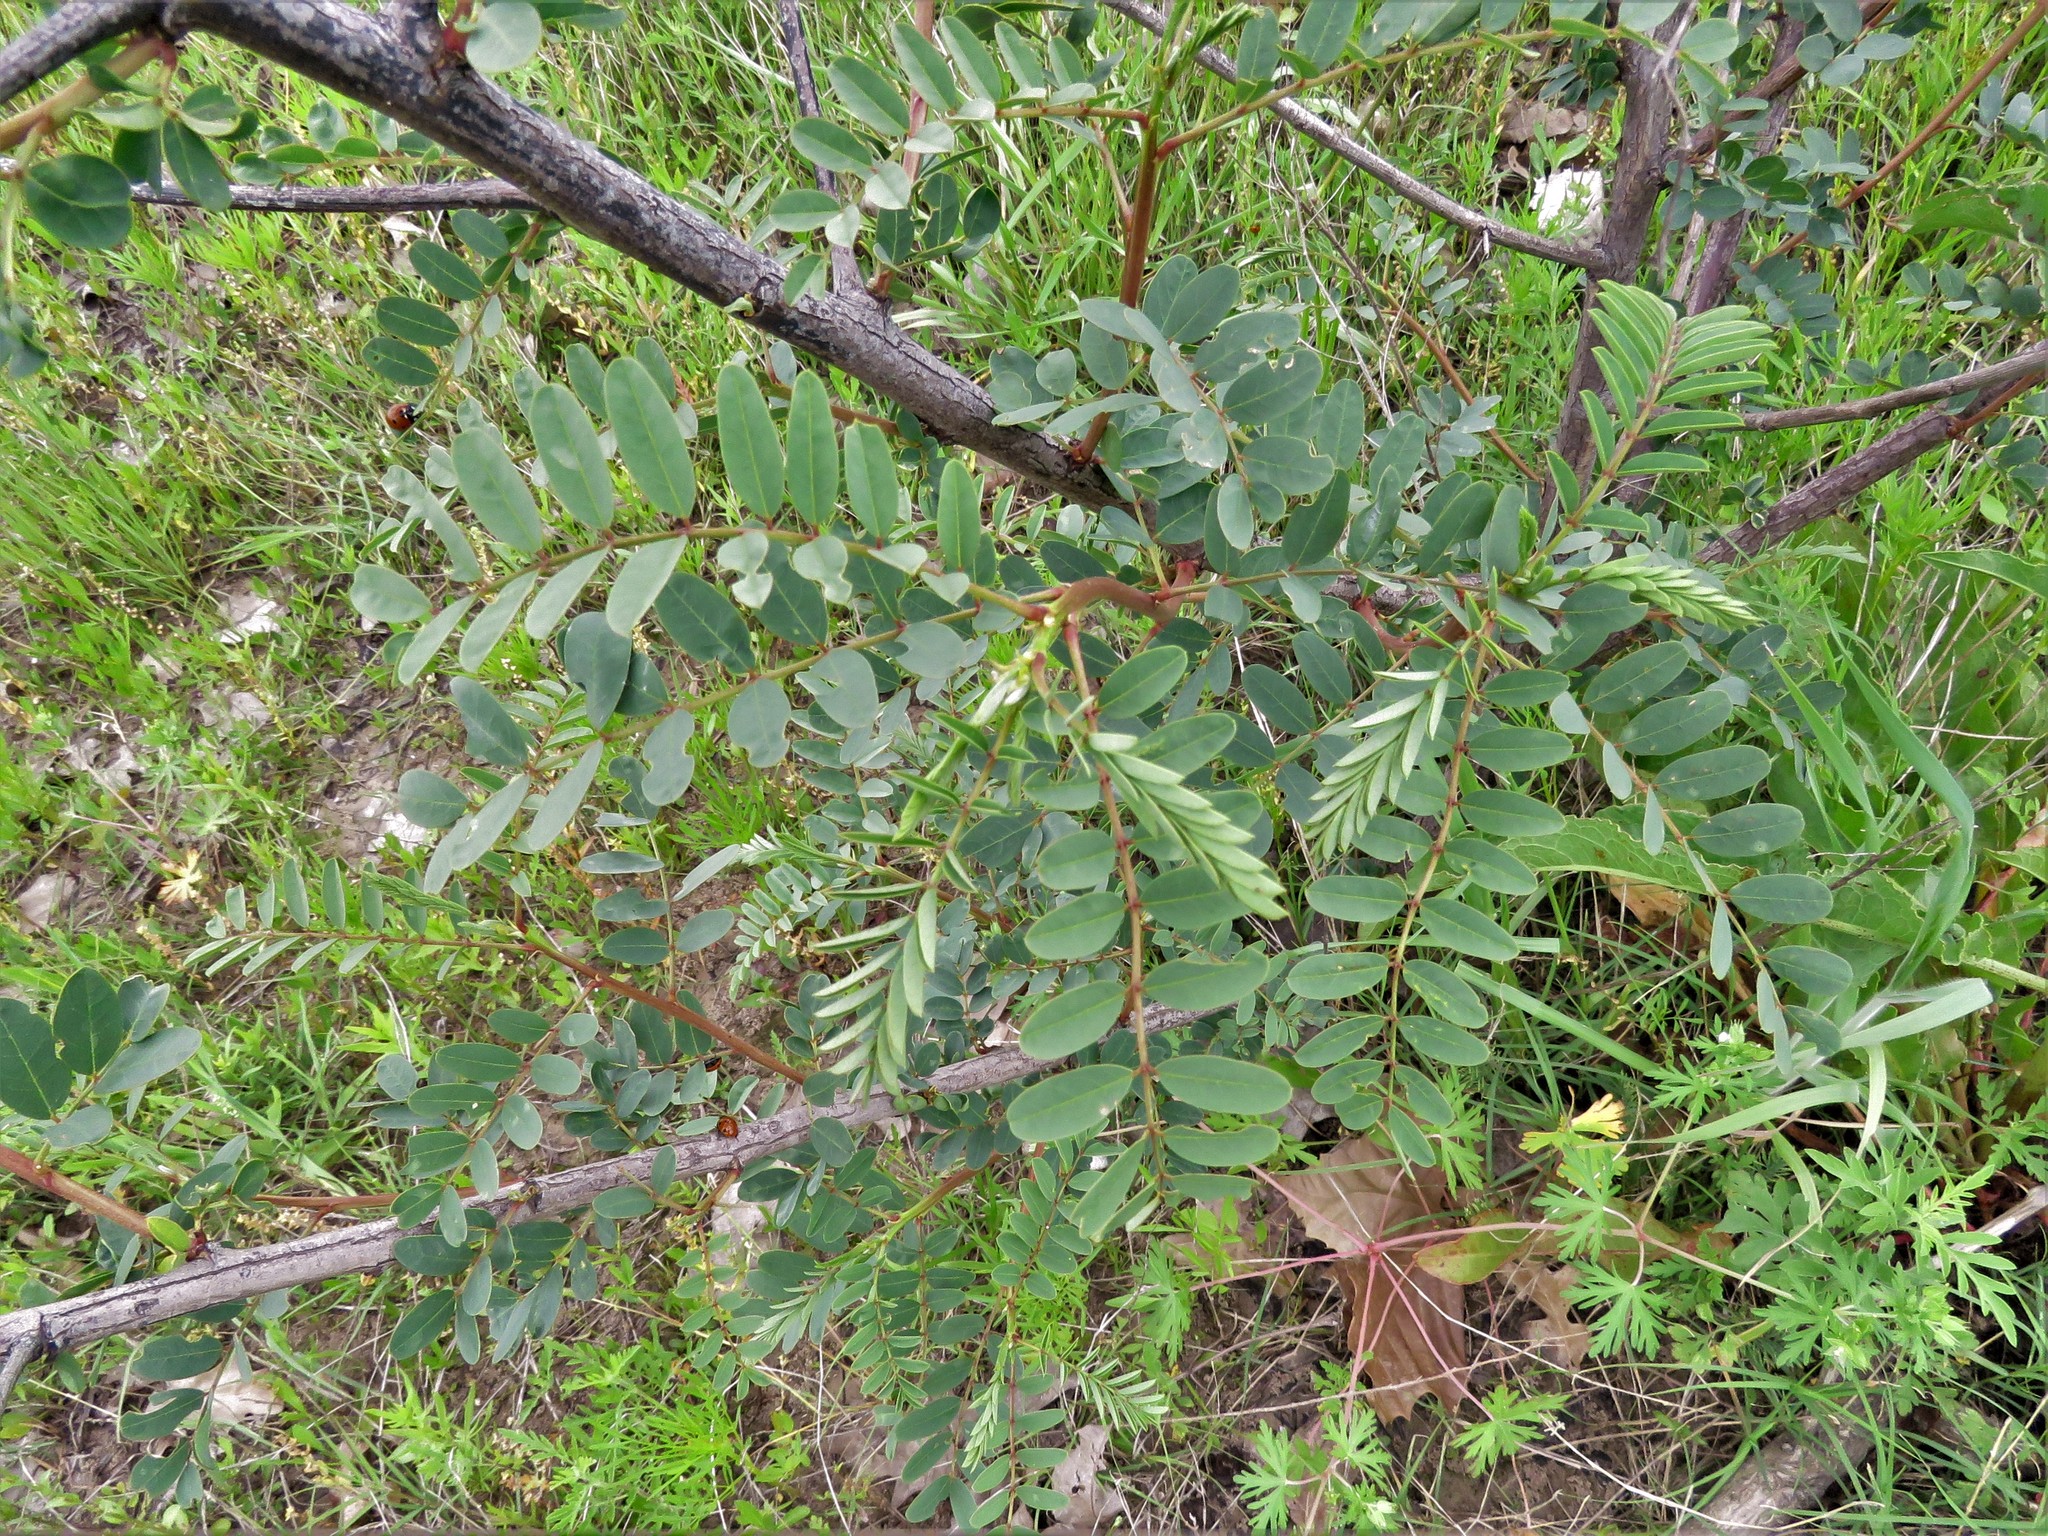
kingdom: Plantae
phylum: Tracheophyta
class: Magnoliopsida
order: Fabales
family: Fabaceae
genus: Sesbania
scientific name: Sesbania drummondii
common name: Poison-bean
